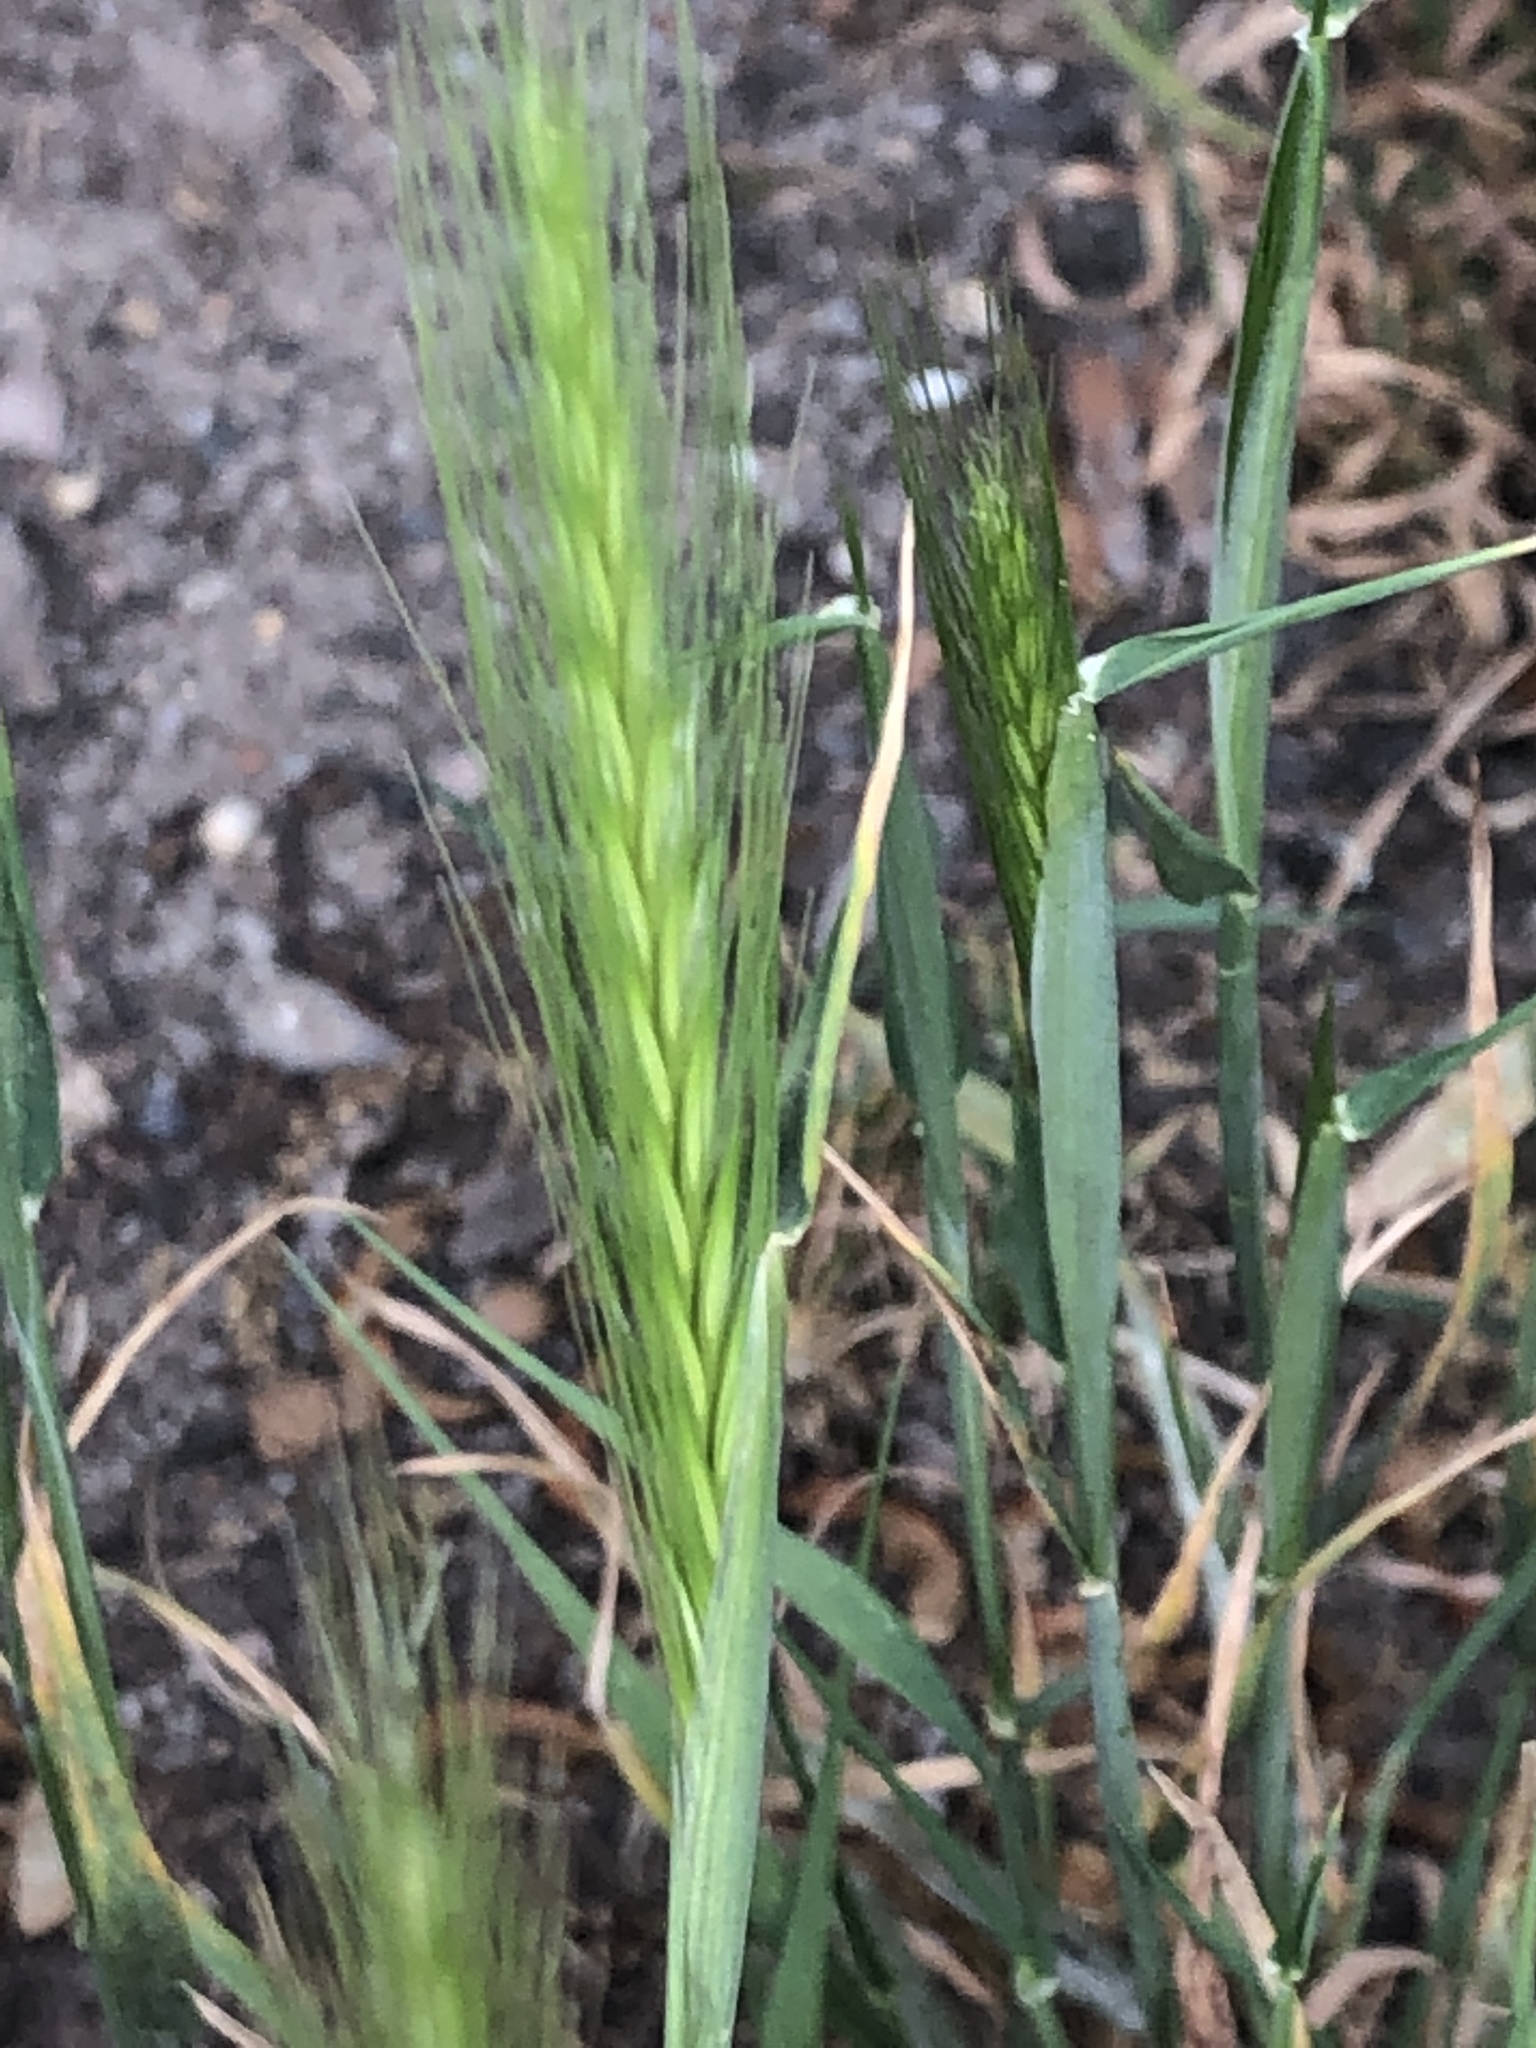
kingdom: Plantae
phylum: Tracheophyta
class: Liliopsida
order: Poales
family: Poaceae
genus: Hordeum
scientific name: Hordeum murinum
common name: Wall barley
